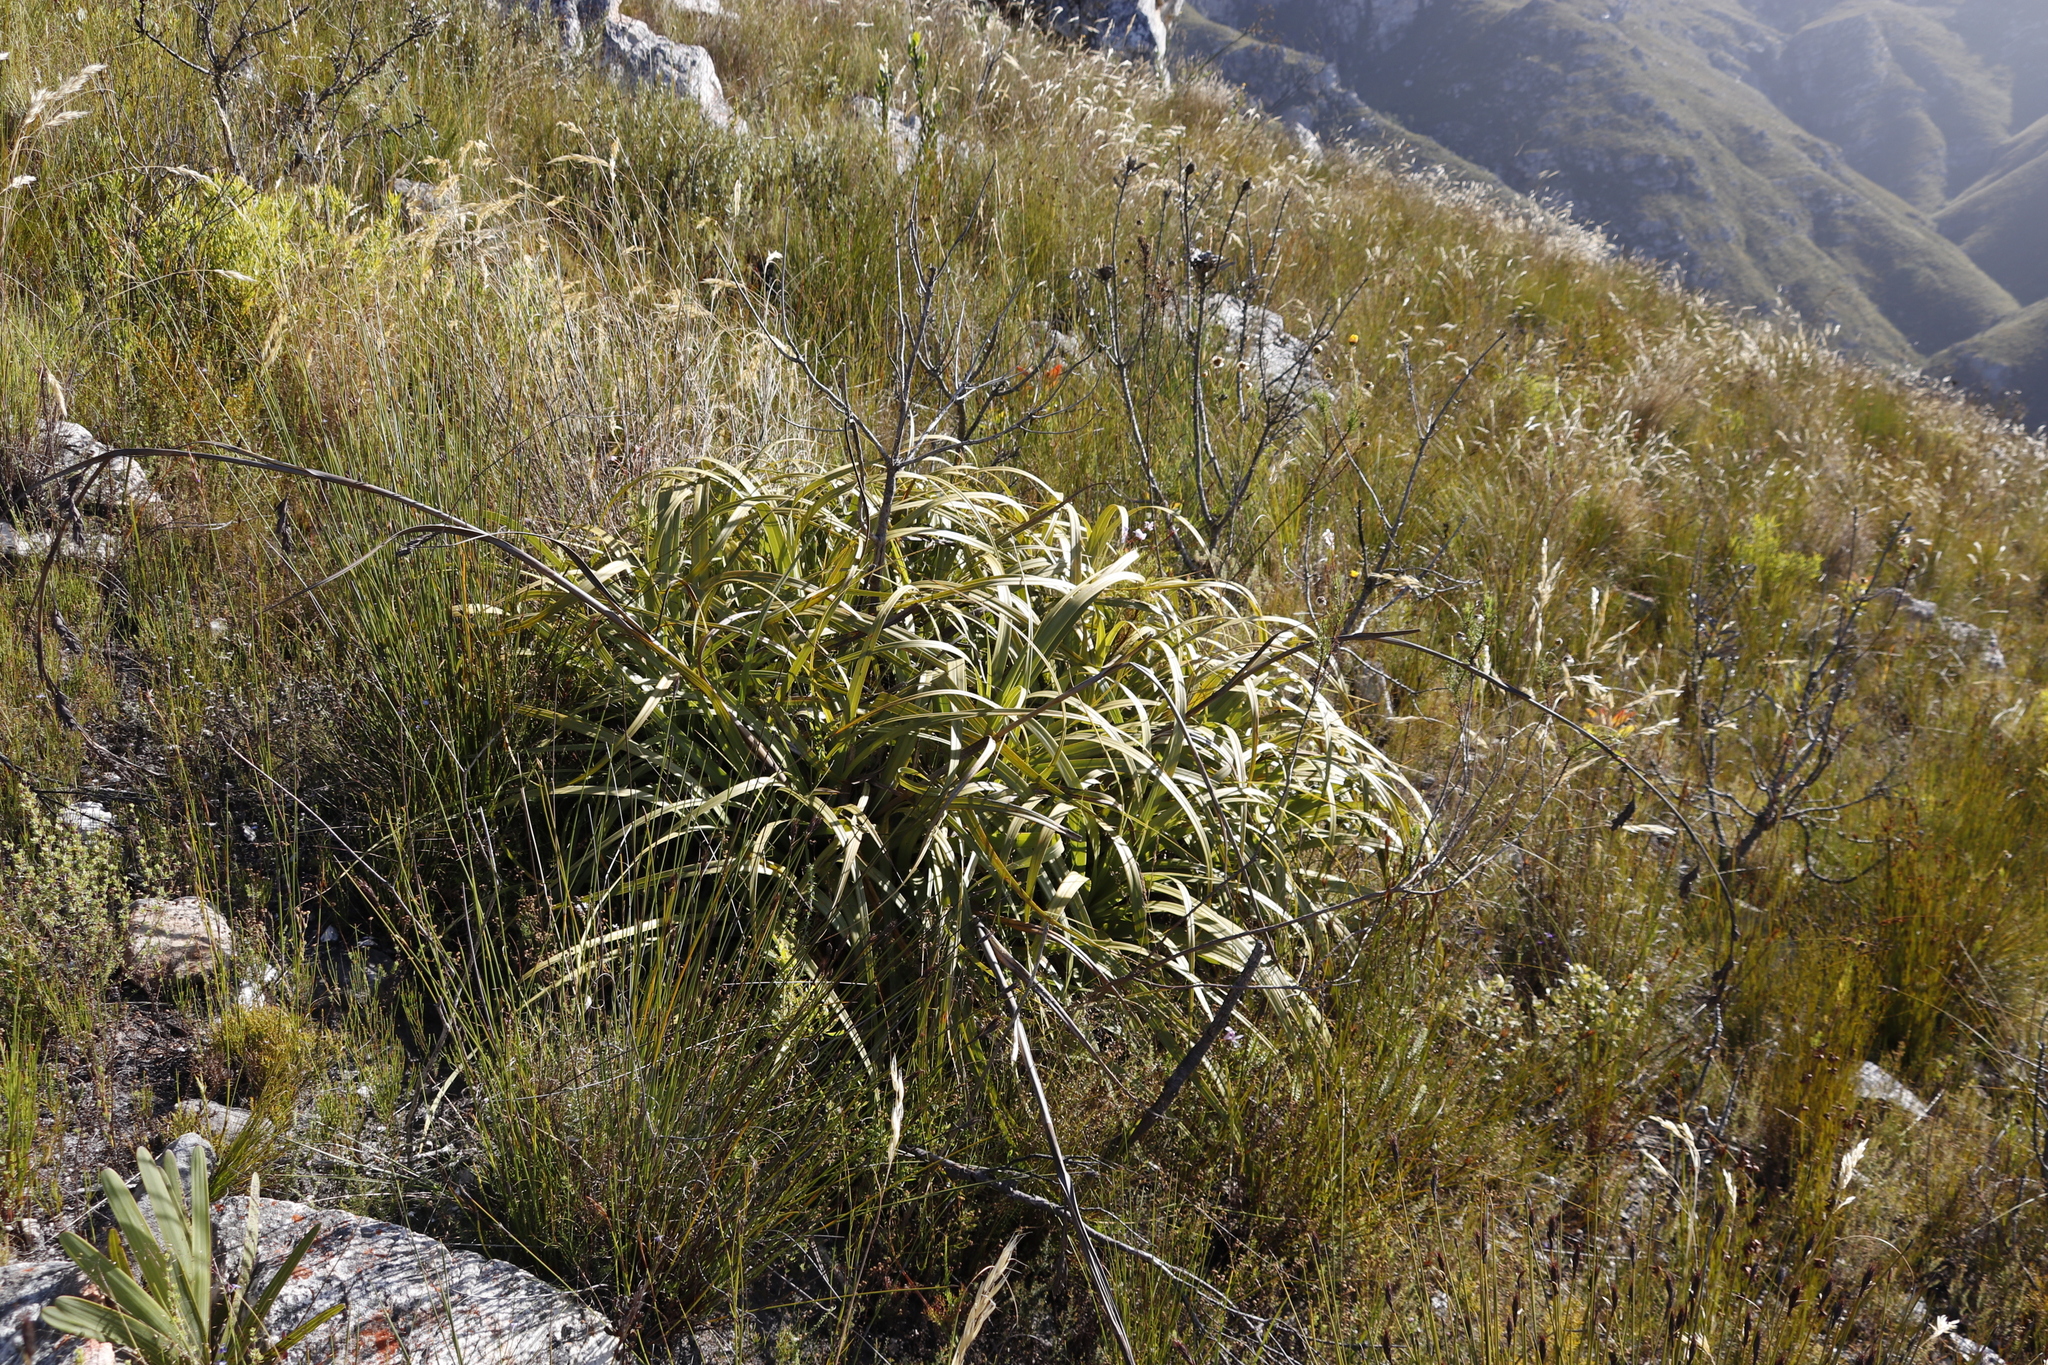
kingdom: Plantae
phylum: Tracheophyta
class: Liliopsida
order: Poales
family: Cyperaceae
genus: Tetraria
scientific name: Tetraria thermalis
